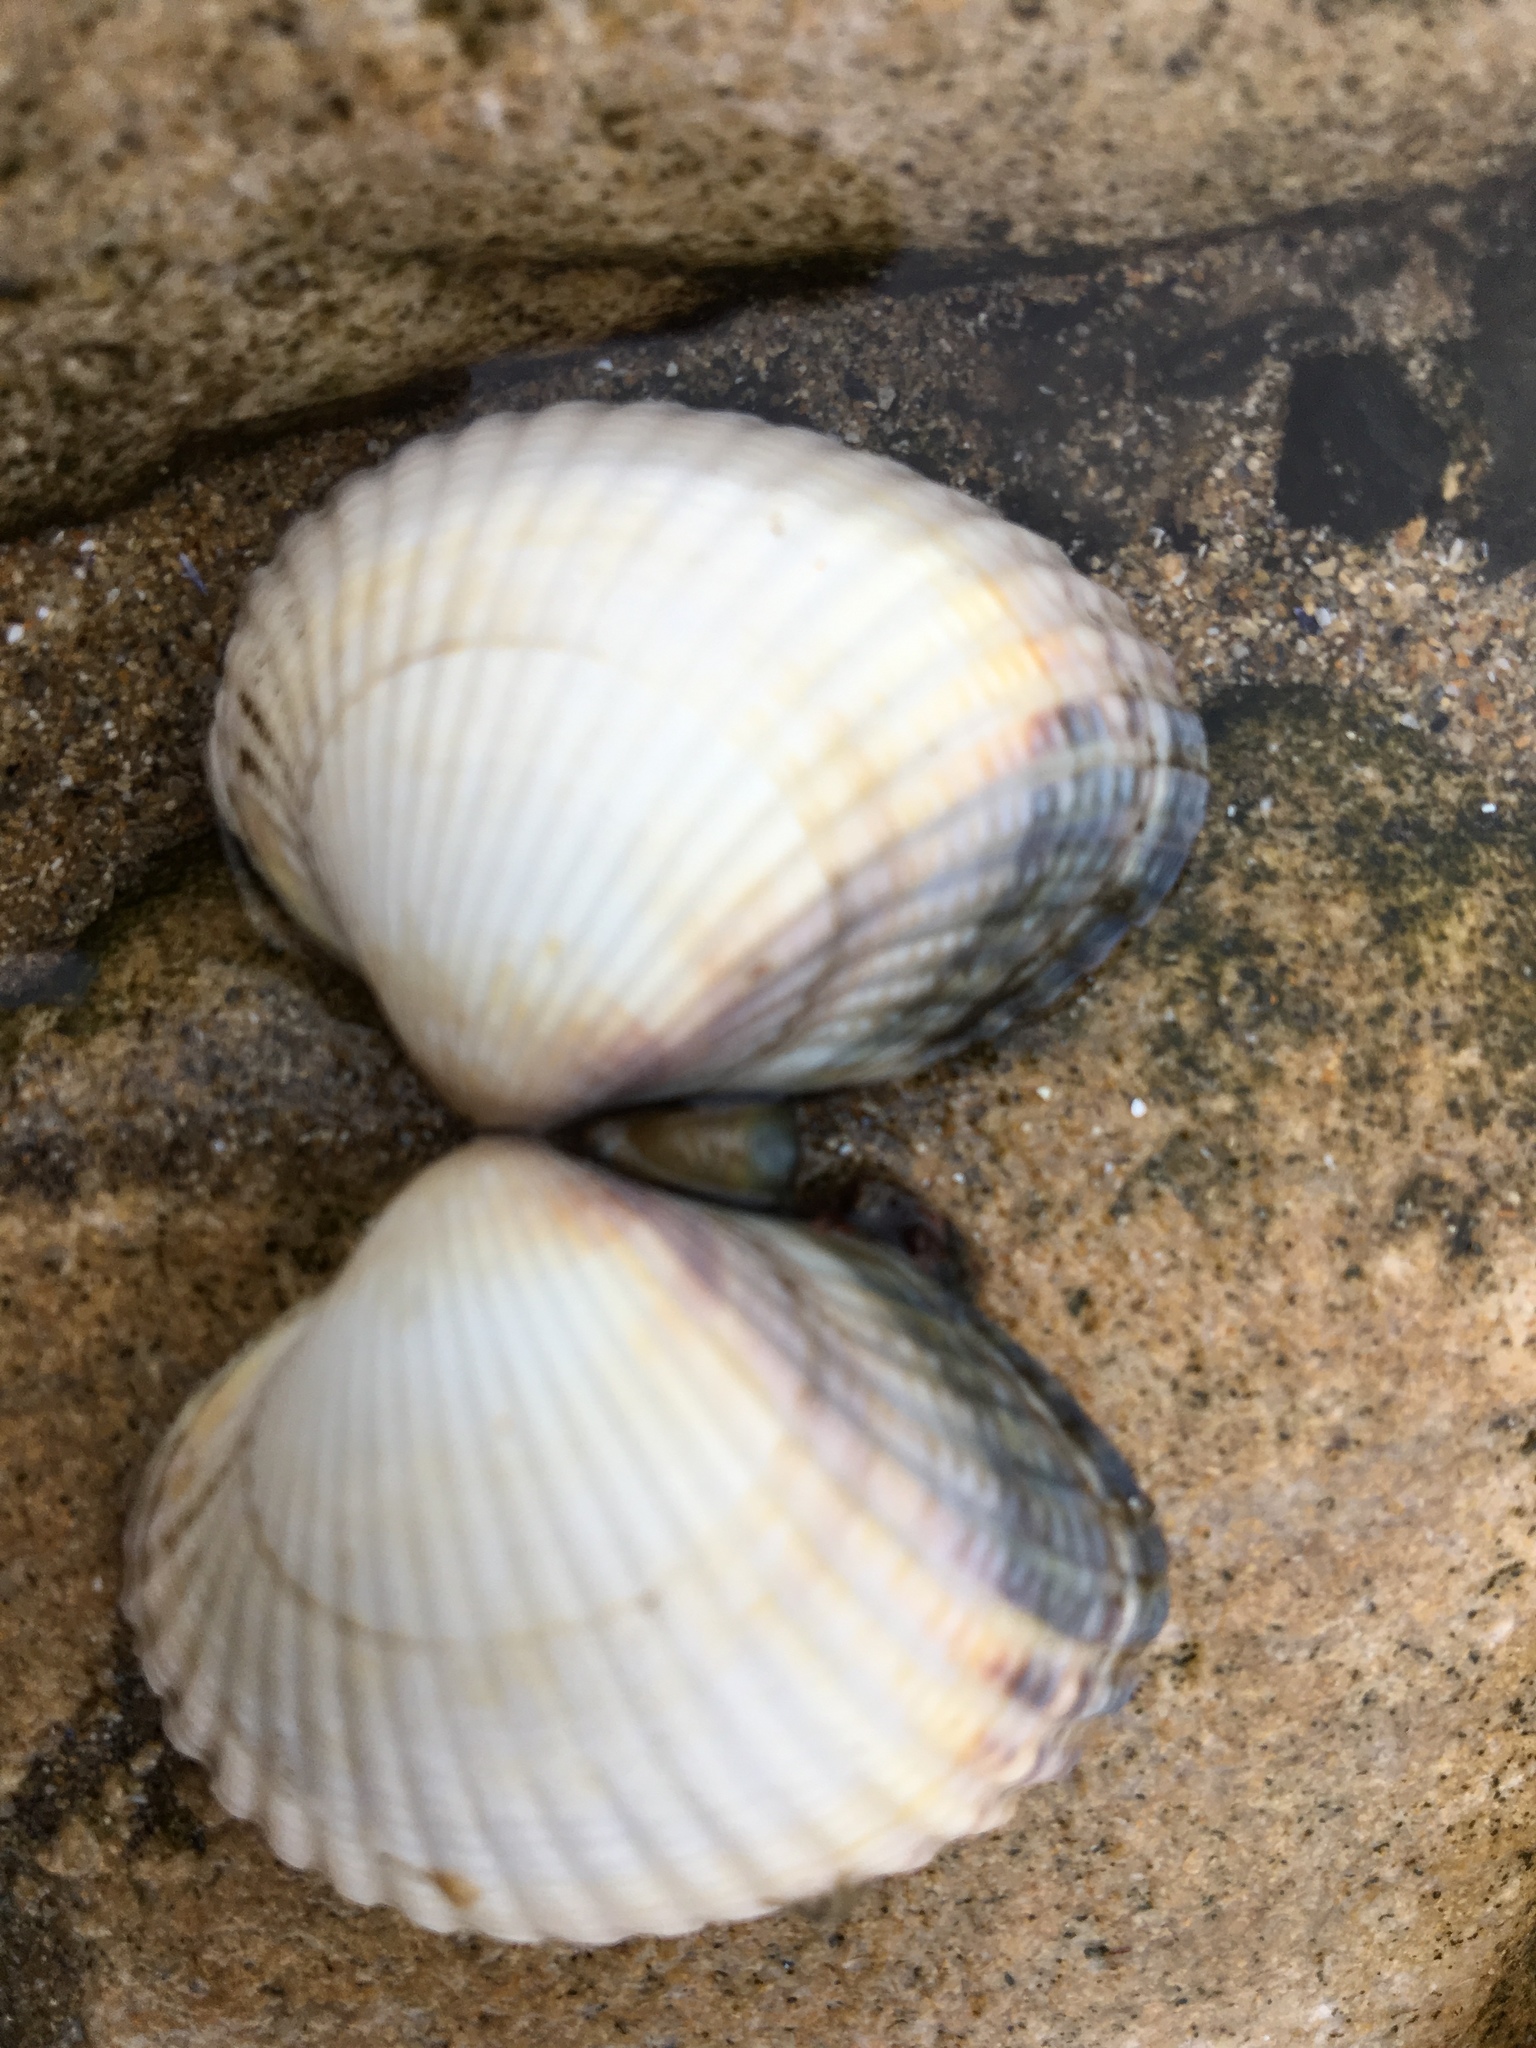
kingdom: Animalia
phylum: Mollusca
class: Bivalvia
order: Cardiida
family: Cardiidae
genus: Cerastoderma
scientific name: Cerastoderma edule
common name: Common cockle
